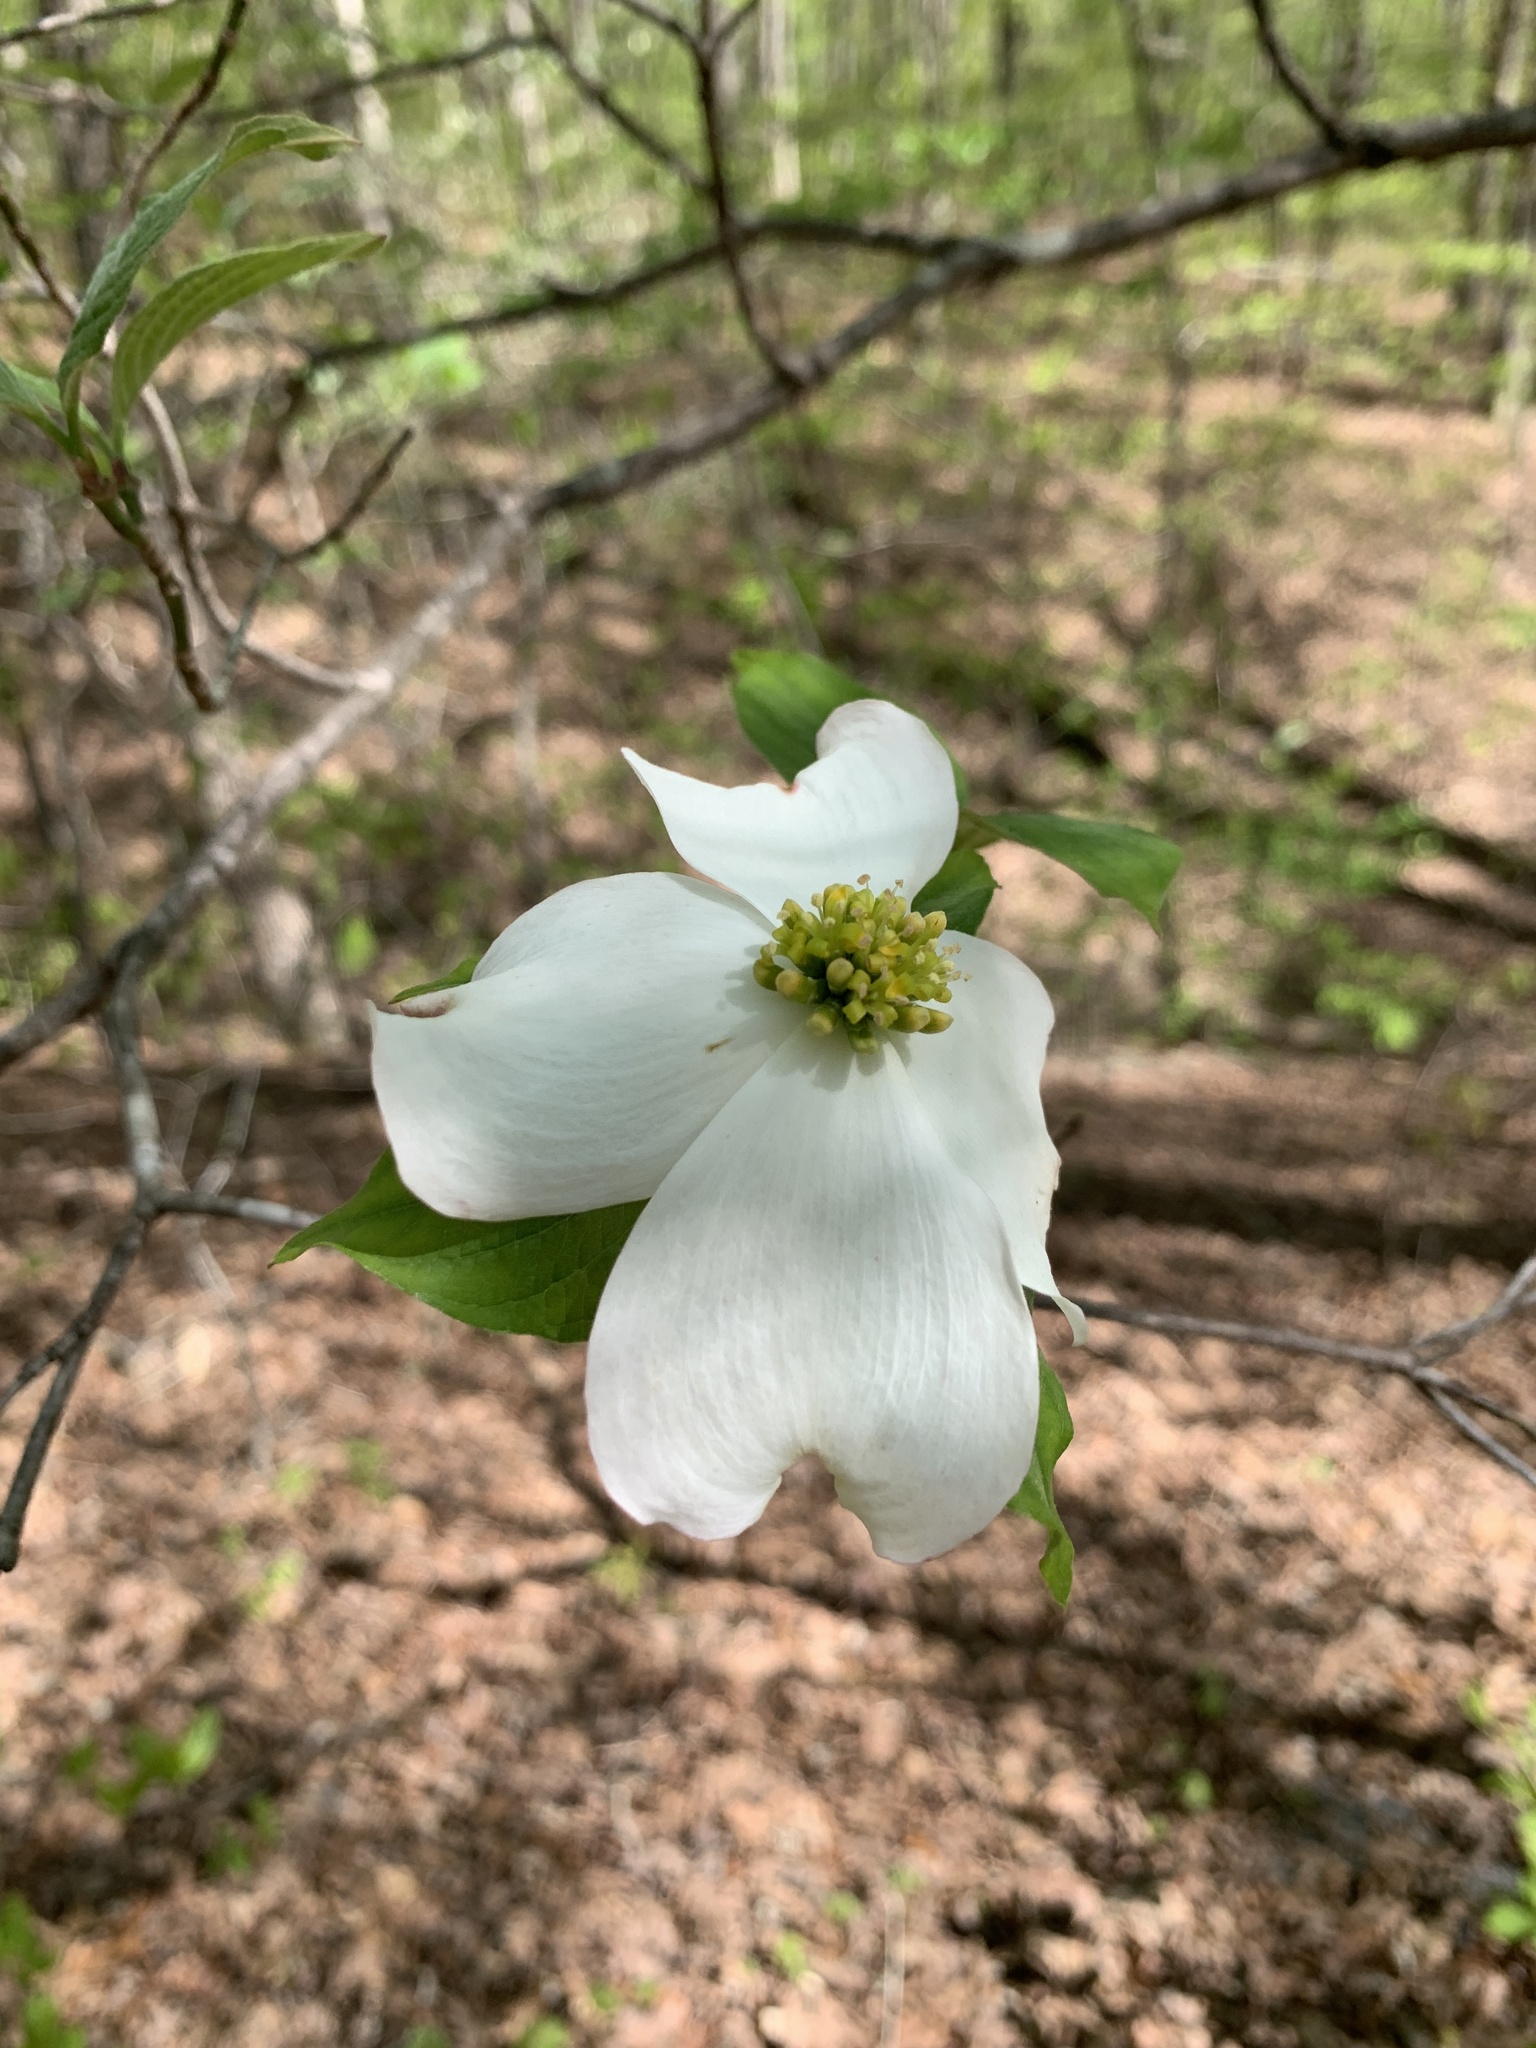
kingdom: Plantae
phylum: Tracheophyta
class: Magnoliopsida
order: Cornales
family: Cornaceae
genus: Cornus
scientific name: Cornus florida
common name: Flowering dogwood
